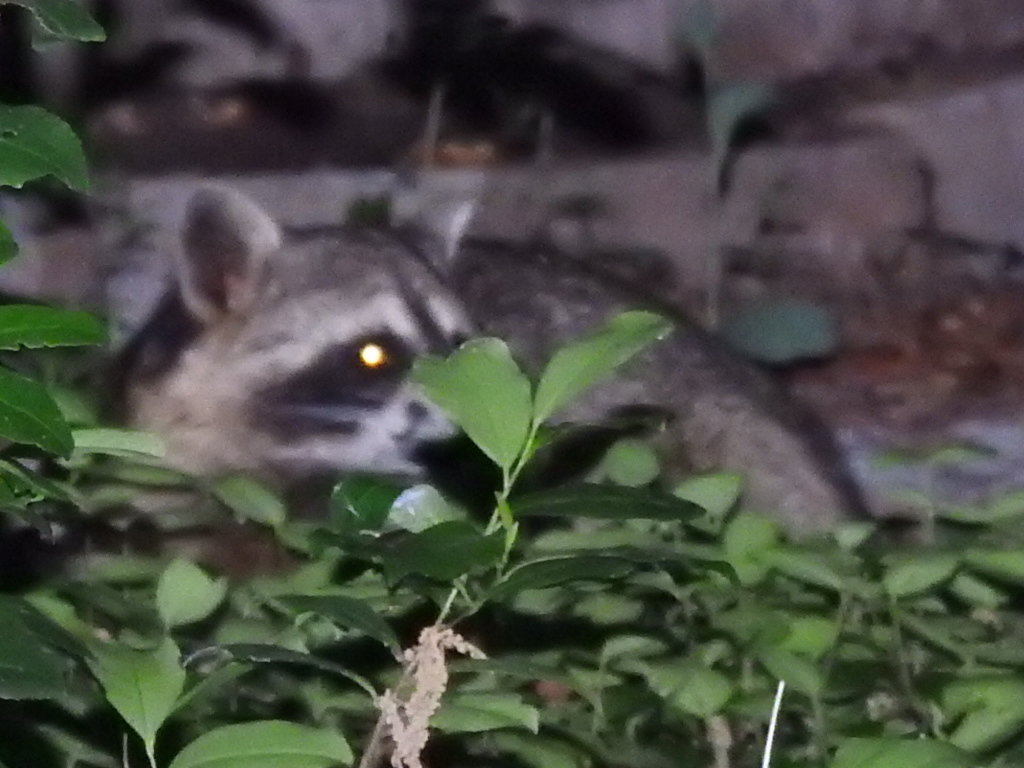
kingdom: Animalia
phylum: Chordata
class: Mammalia
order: Carnivora
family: Procyonidae
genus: Procyon
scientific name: Procyon lotor
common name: Raccoon
